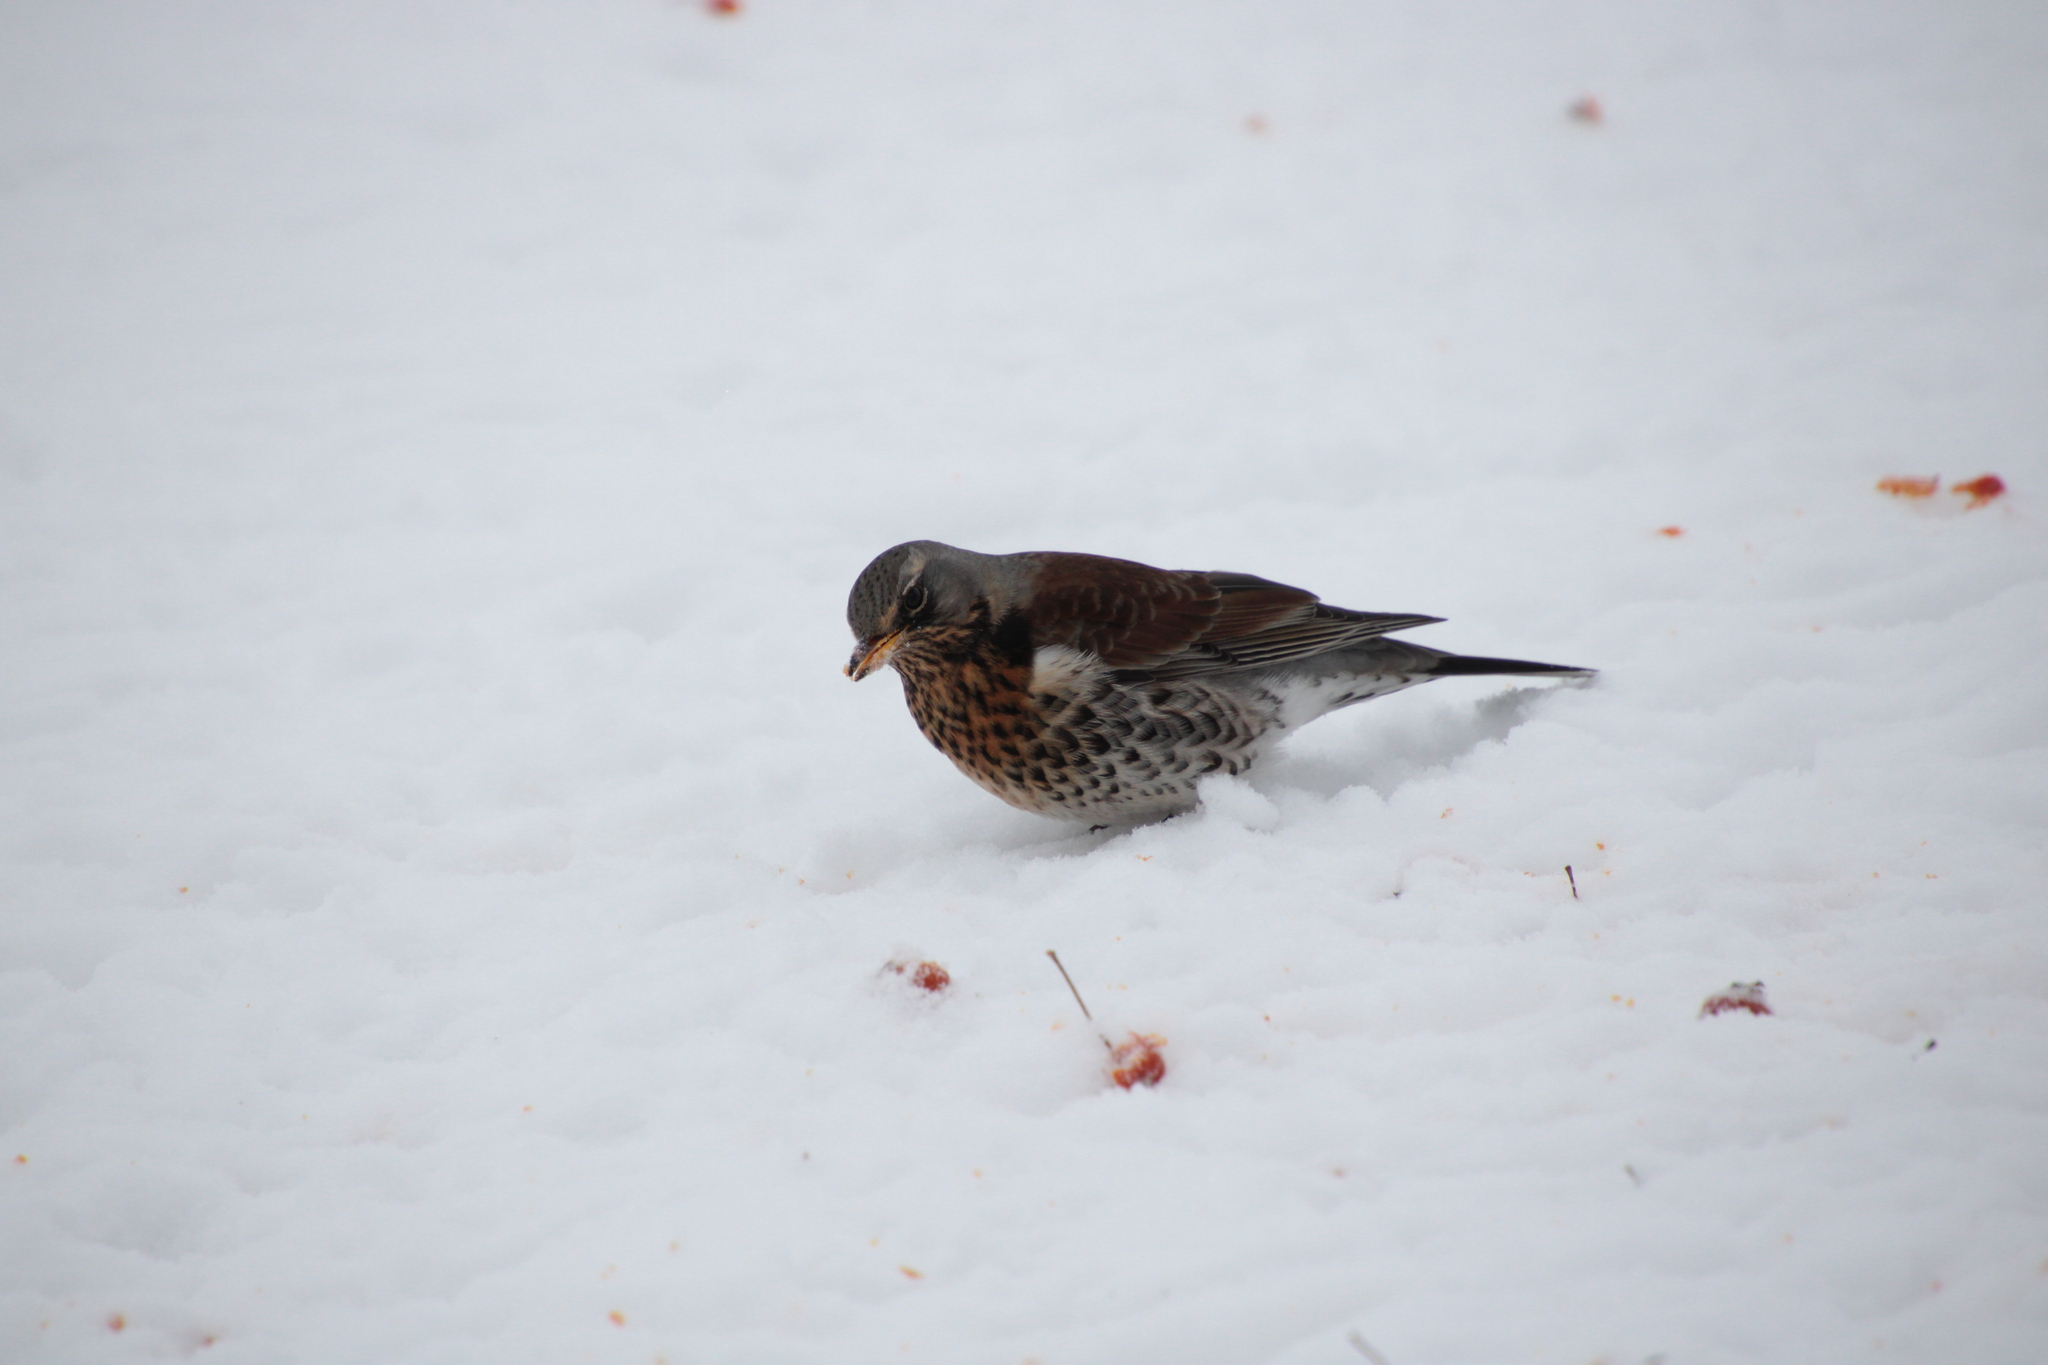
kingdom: Animalia
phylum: Chordata
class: Aves
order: Passeriformes
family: Turdidae
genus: Turdus
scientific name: Turdus pilaris
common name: Fieldfare
